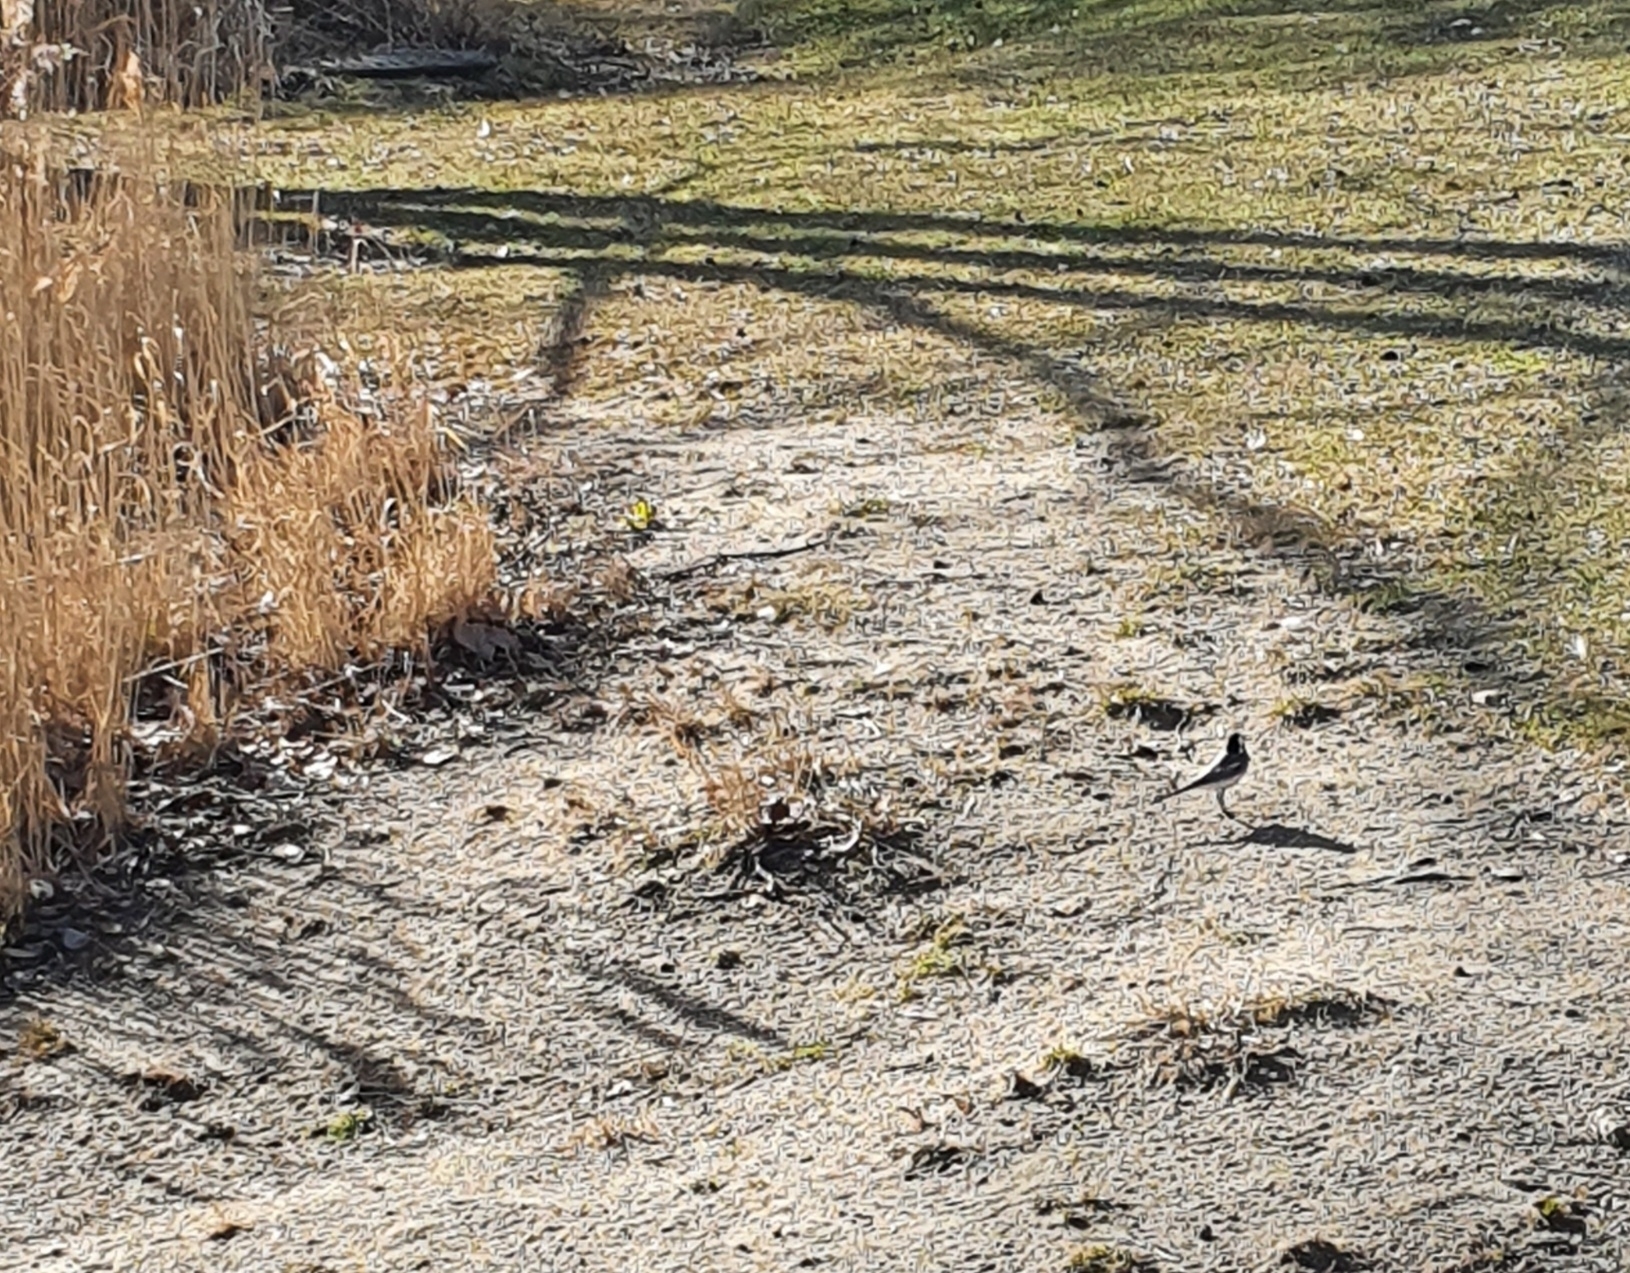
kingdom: Animalia
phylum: Chordata
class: Aves
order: Passeriformes
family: Motacillidae
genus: Motacilla
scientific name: Motacilla alba
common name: White wagtail
